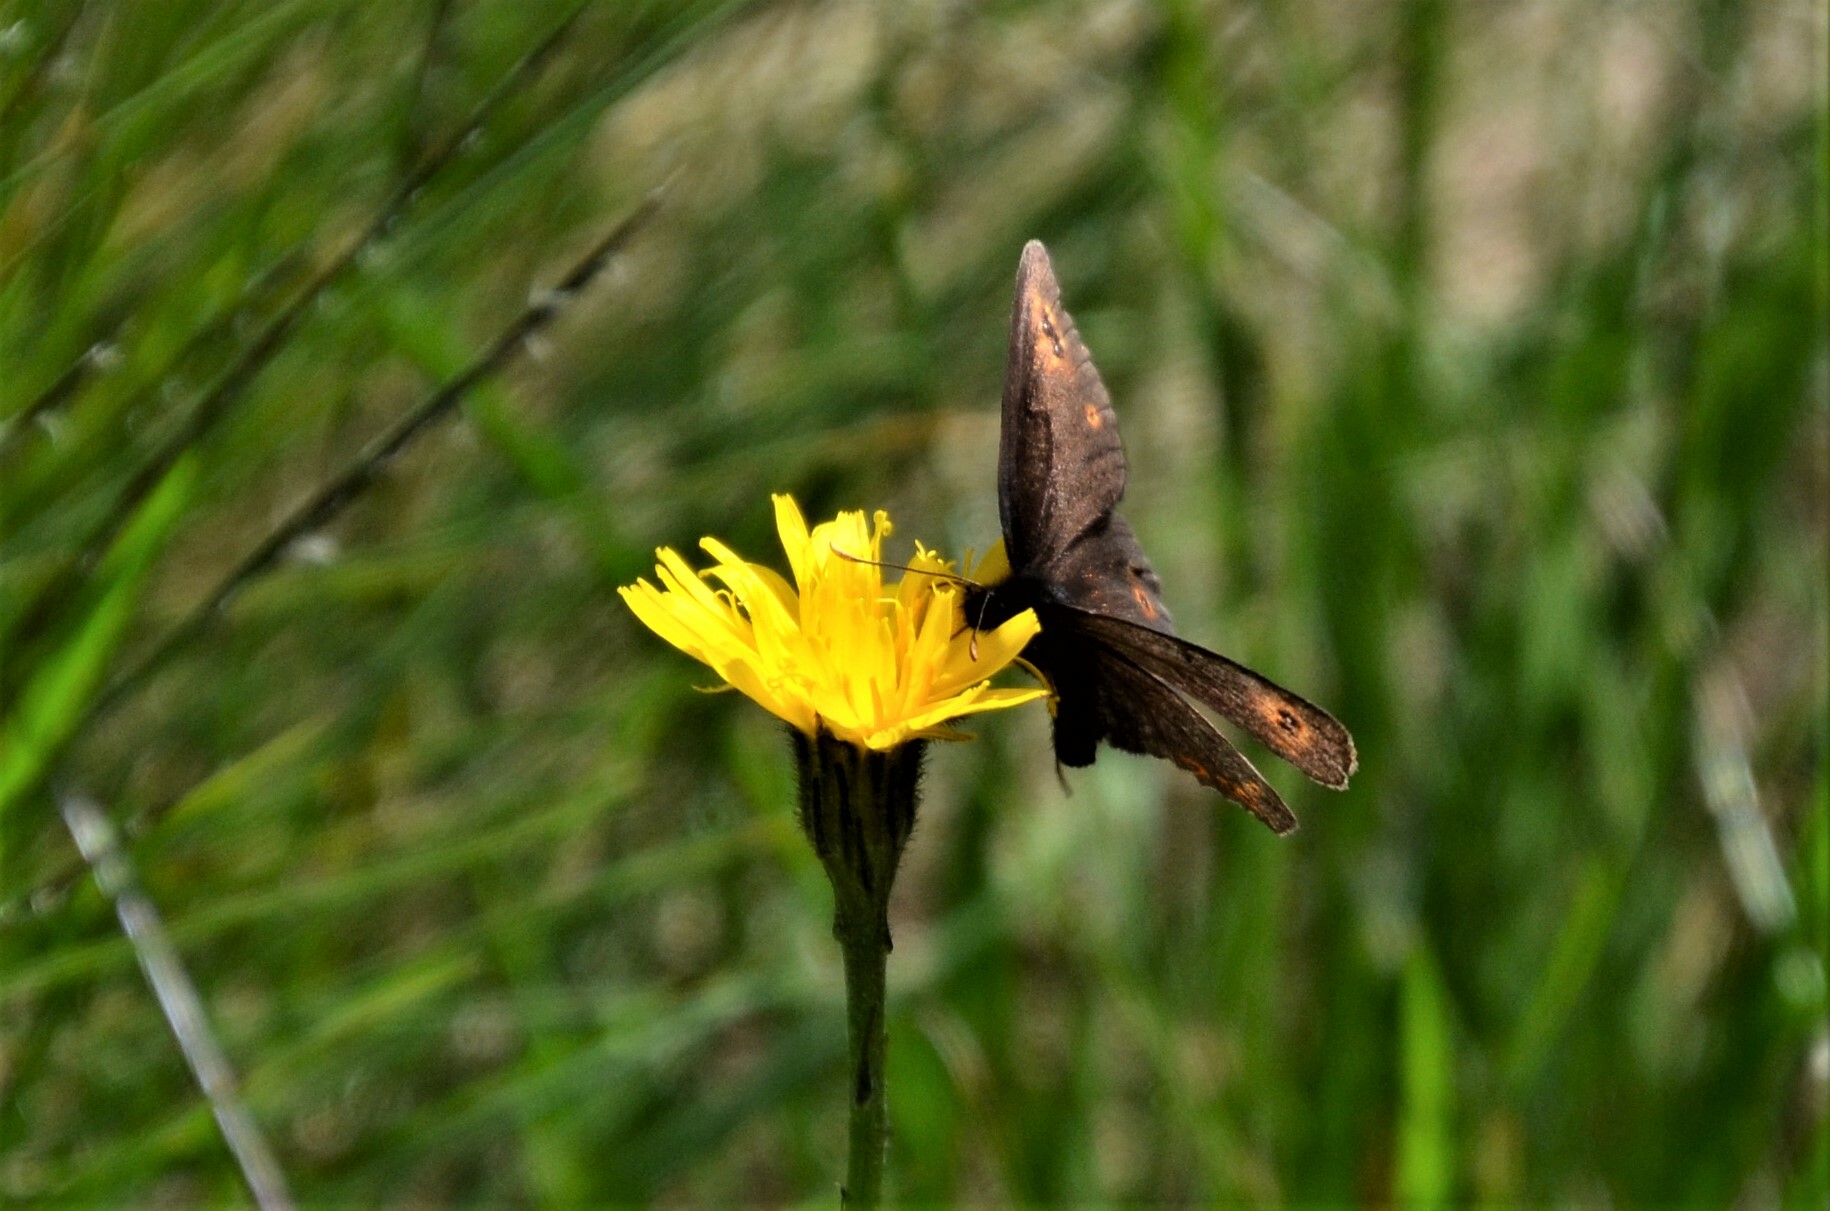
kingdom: Animalia
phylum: Arthropoda
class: Insecta
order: Lepidoptera
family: Nymphalidae
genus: Erebia
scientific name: Erebia medusa
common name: Woodland ringlet
